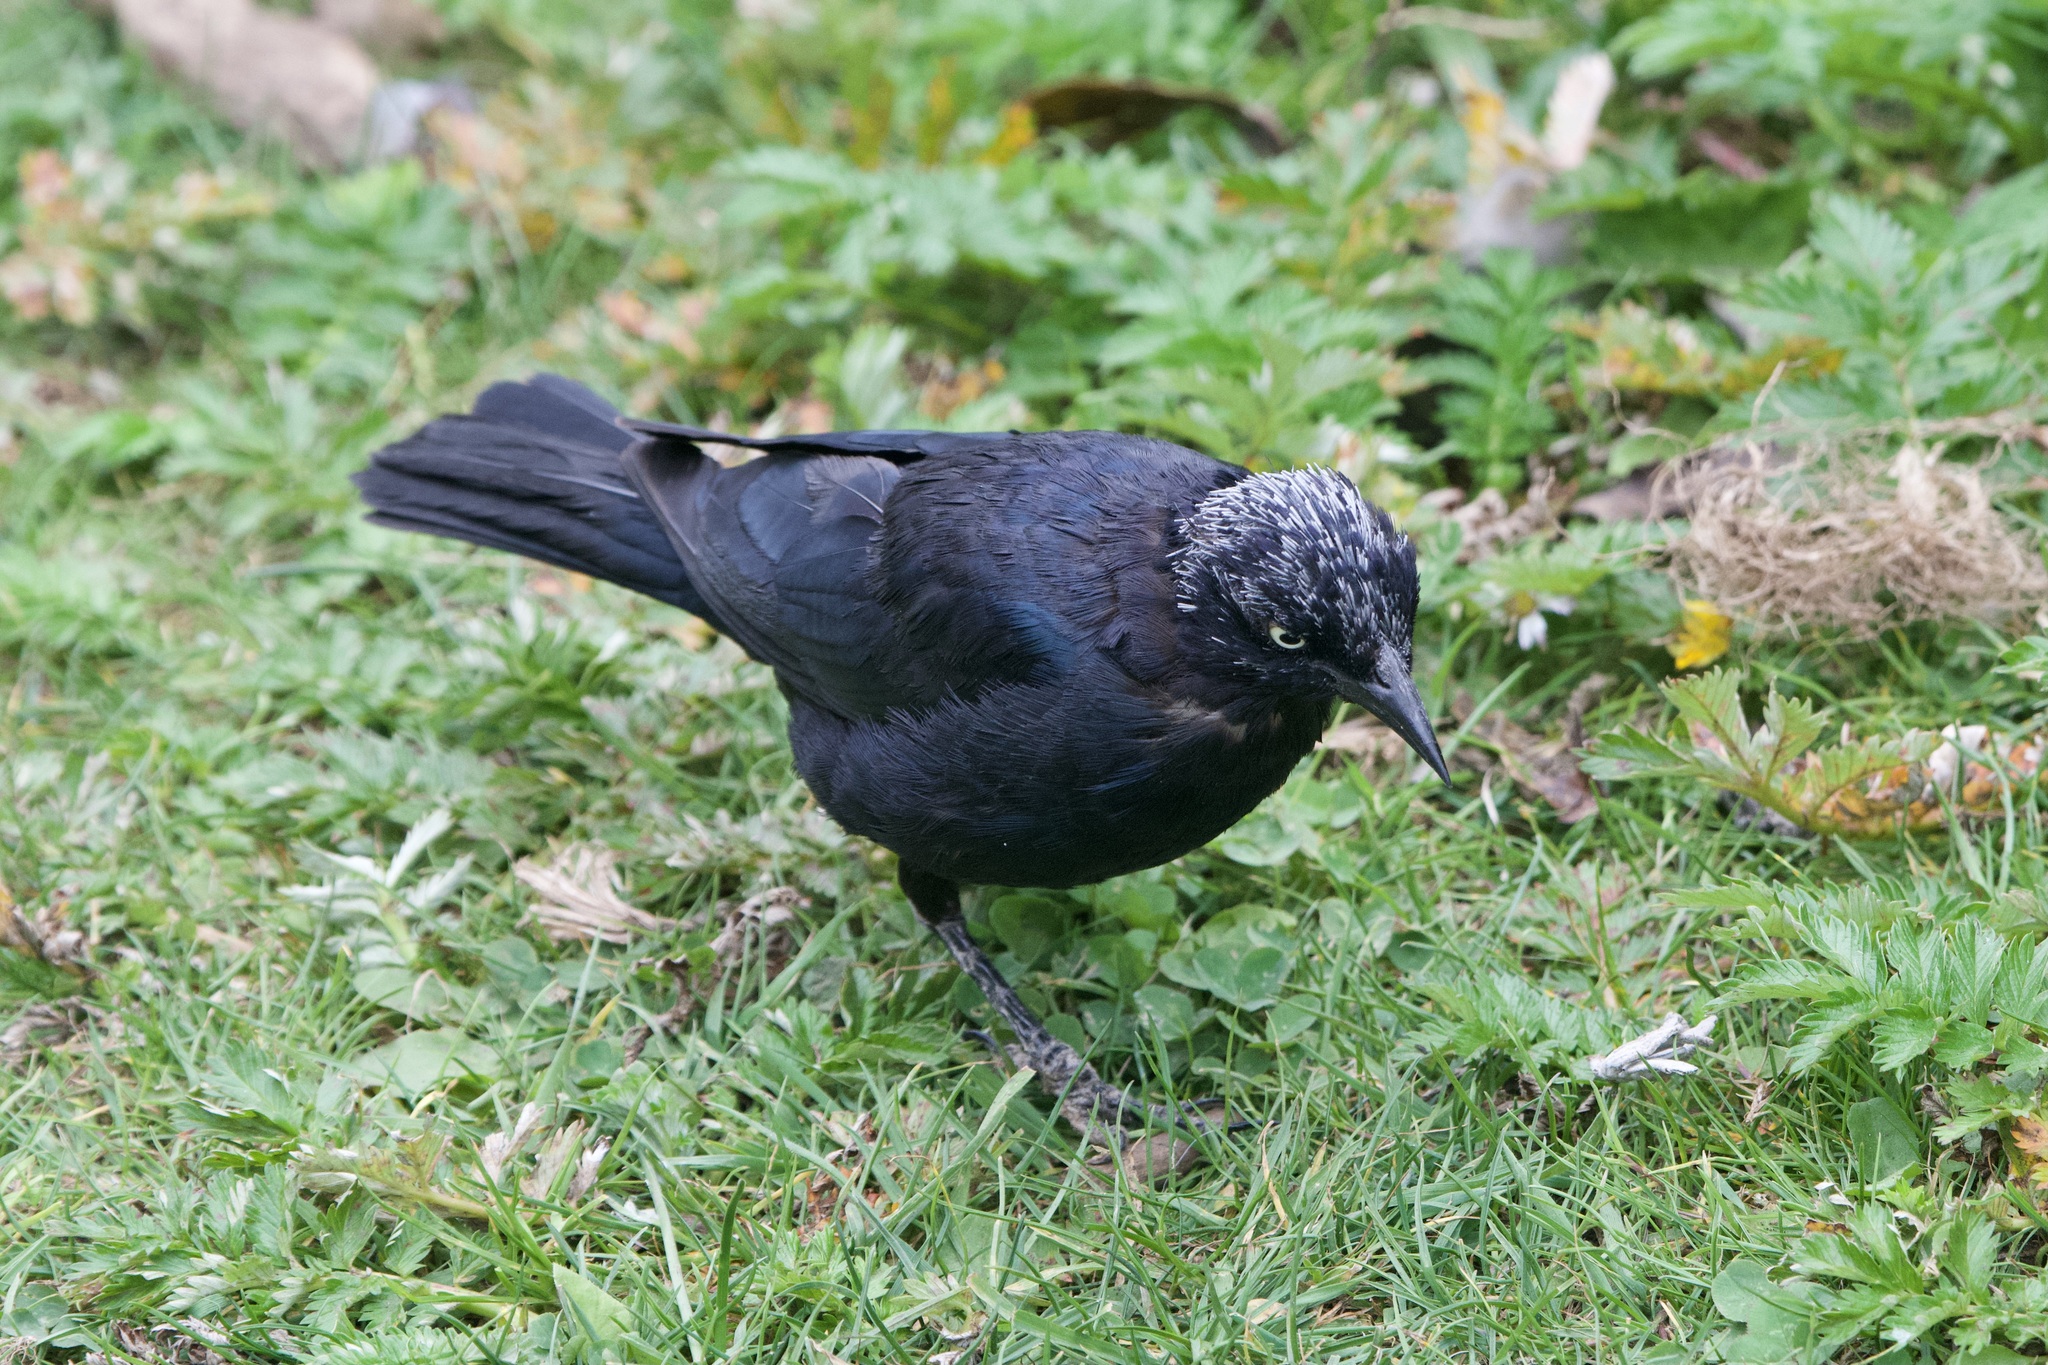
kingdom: Animalia
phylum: Chordata
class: Aves
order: Passeriformes
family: Icteridae
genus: Euphagus
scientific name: Euphagus cyanocephalus
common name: Brewer's blackbird
